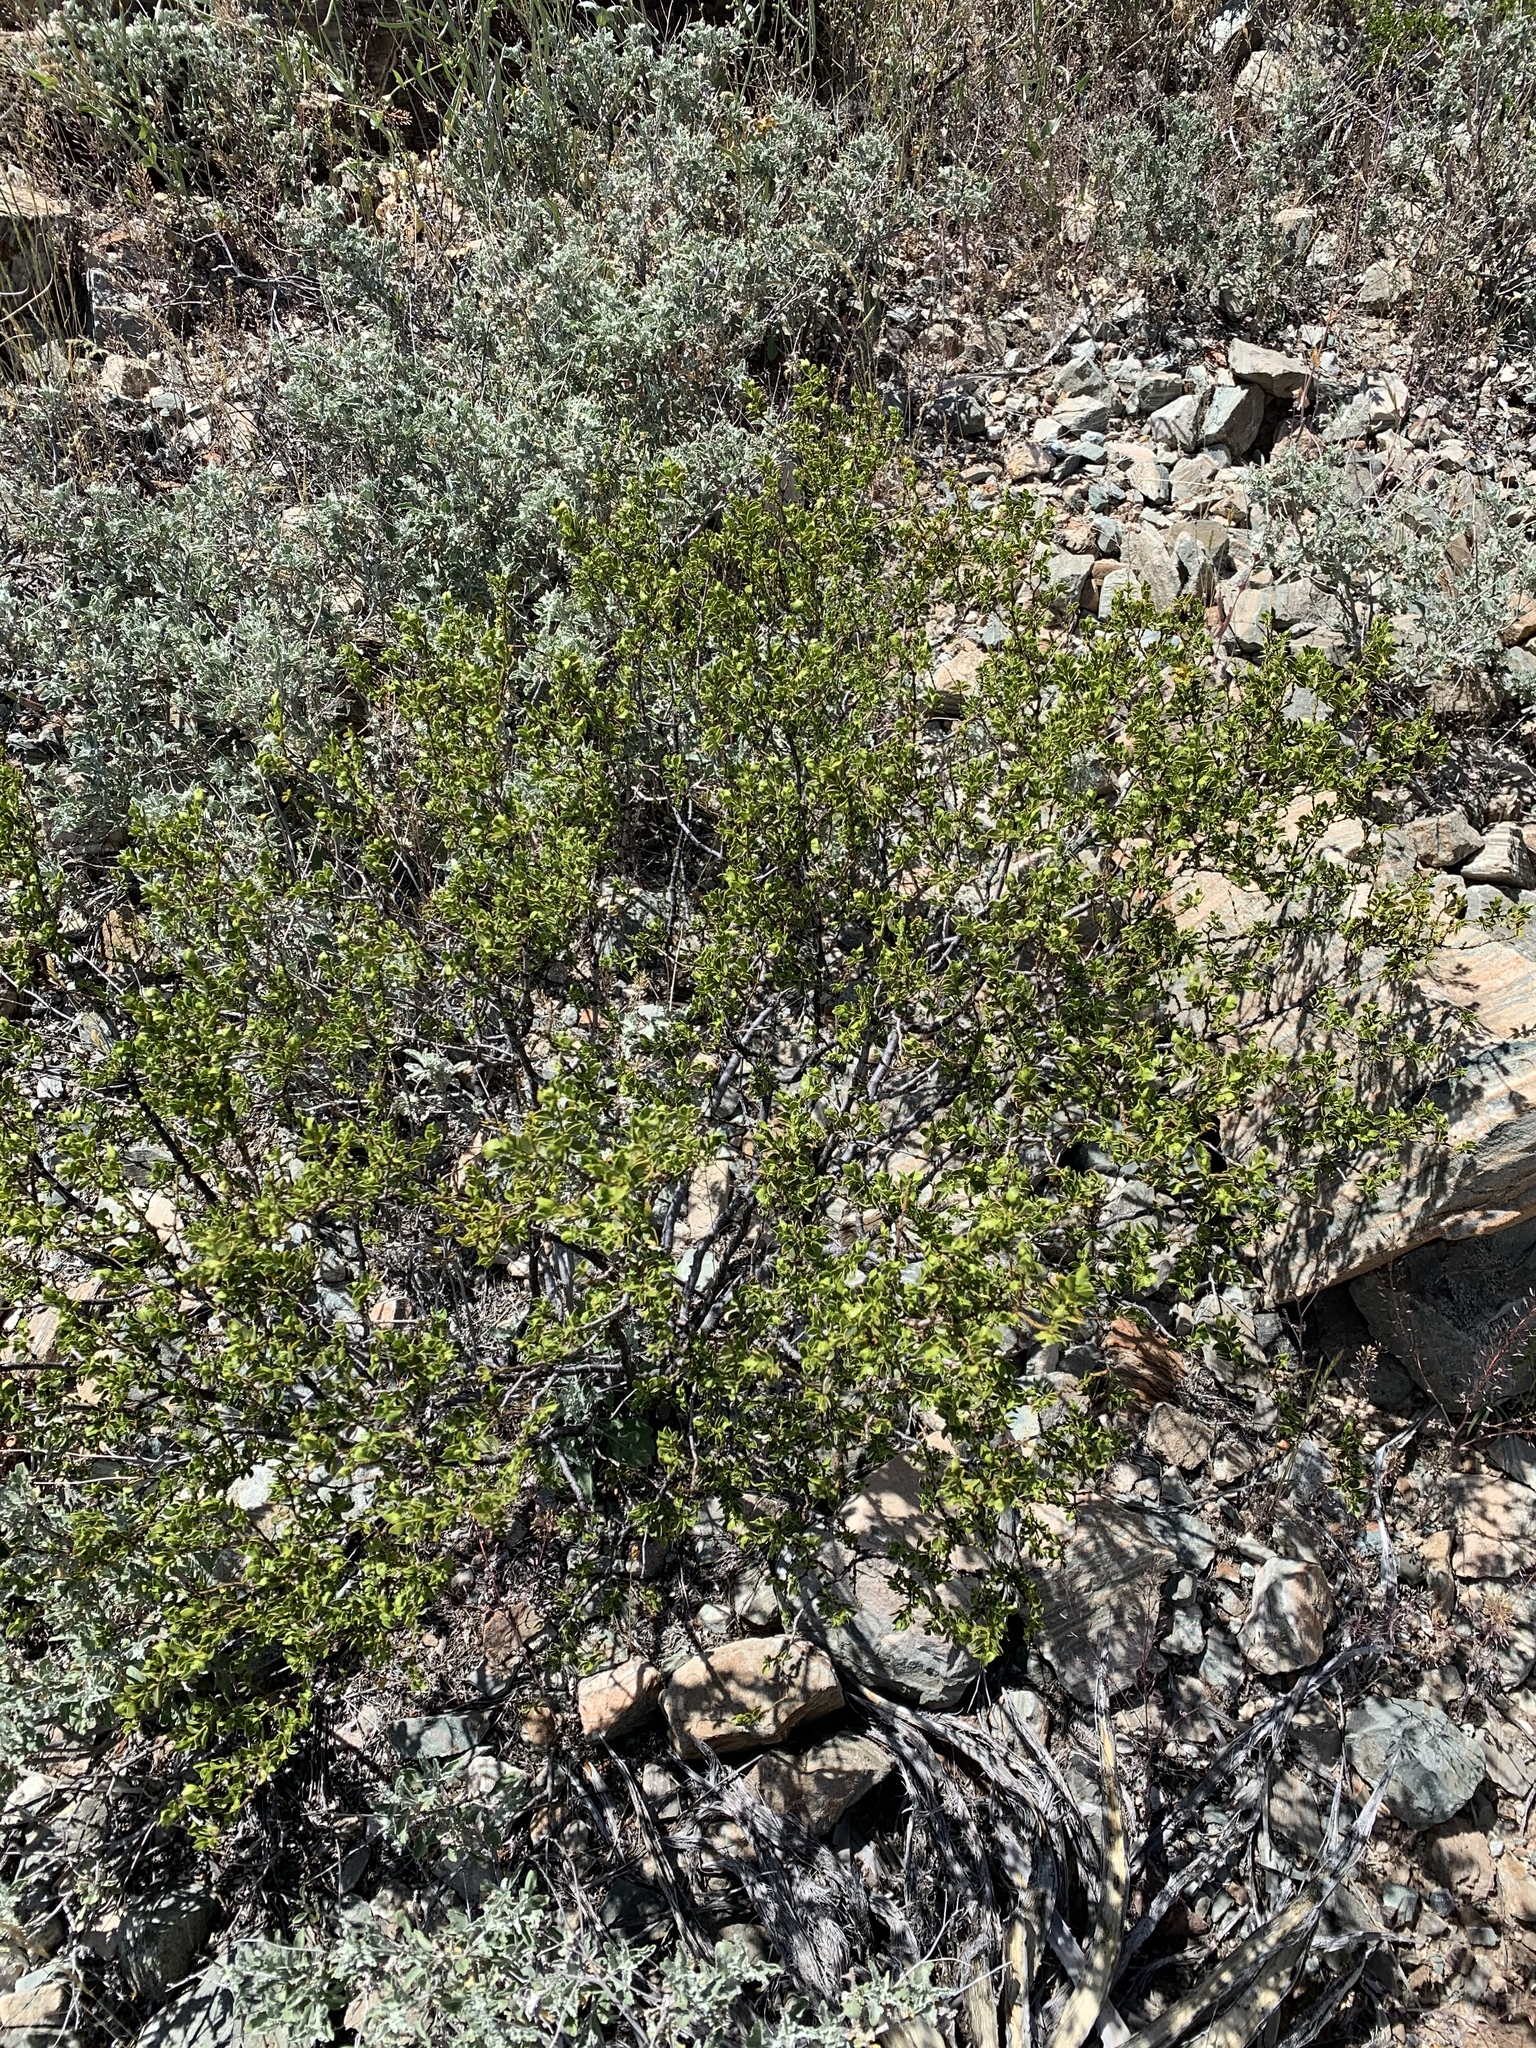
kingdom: Plantae
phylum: Tracheophyta
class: Magnoliopsida
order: Zygophyllales
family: Zygophyllaceae
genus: Larrea
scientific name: Larrea tridentata
